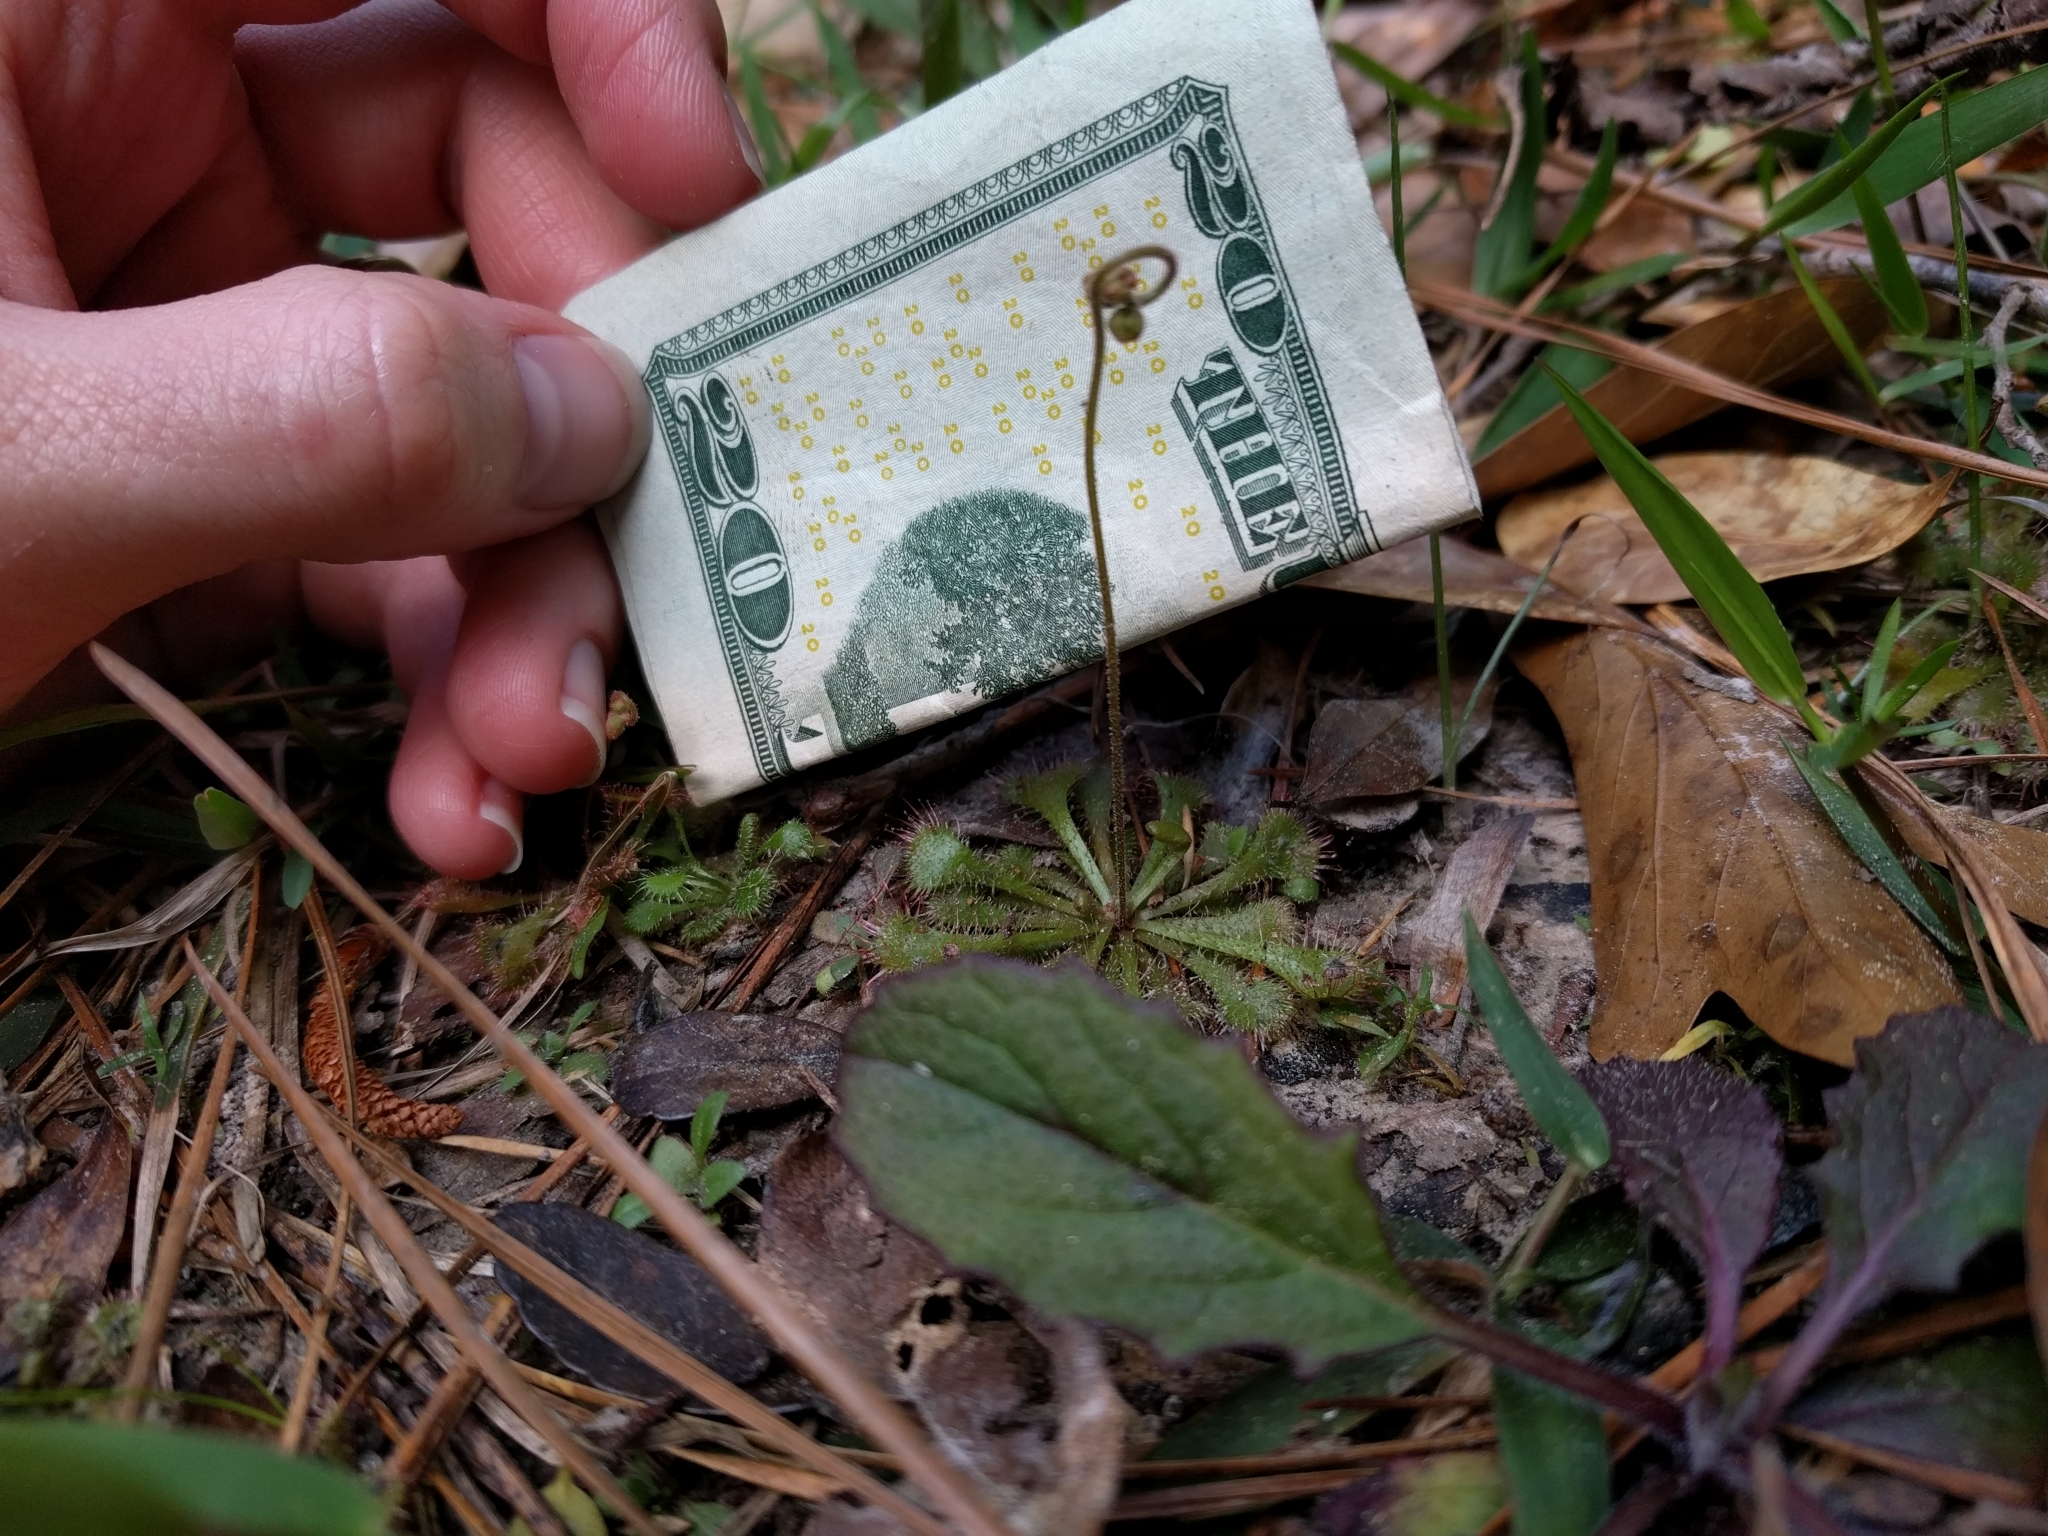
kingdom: Plantae
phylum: Tracheophyta
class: Magnoliopsida
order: Caryophyllales
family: Droseraceae
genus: Drosera
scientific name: Drosera brevifolia
